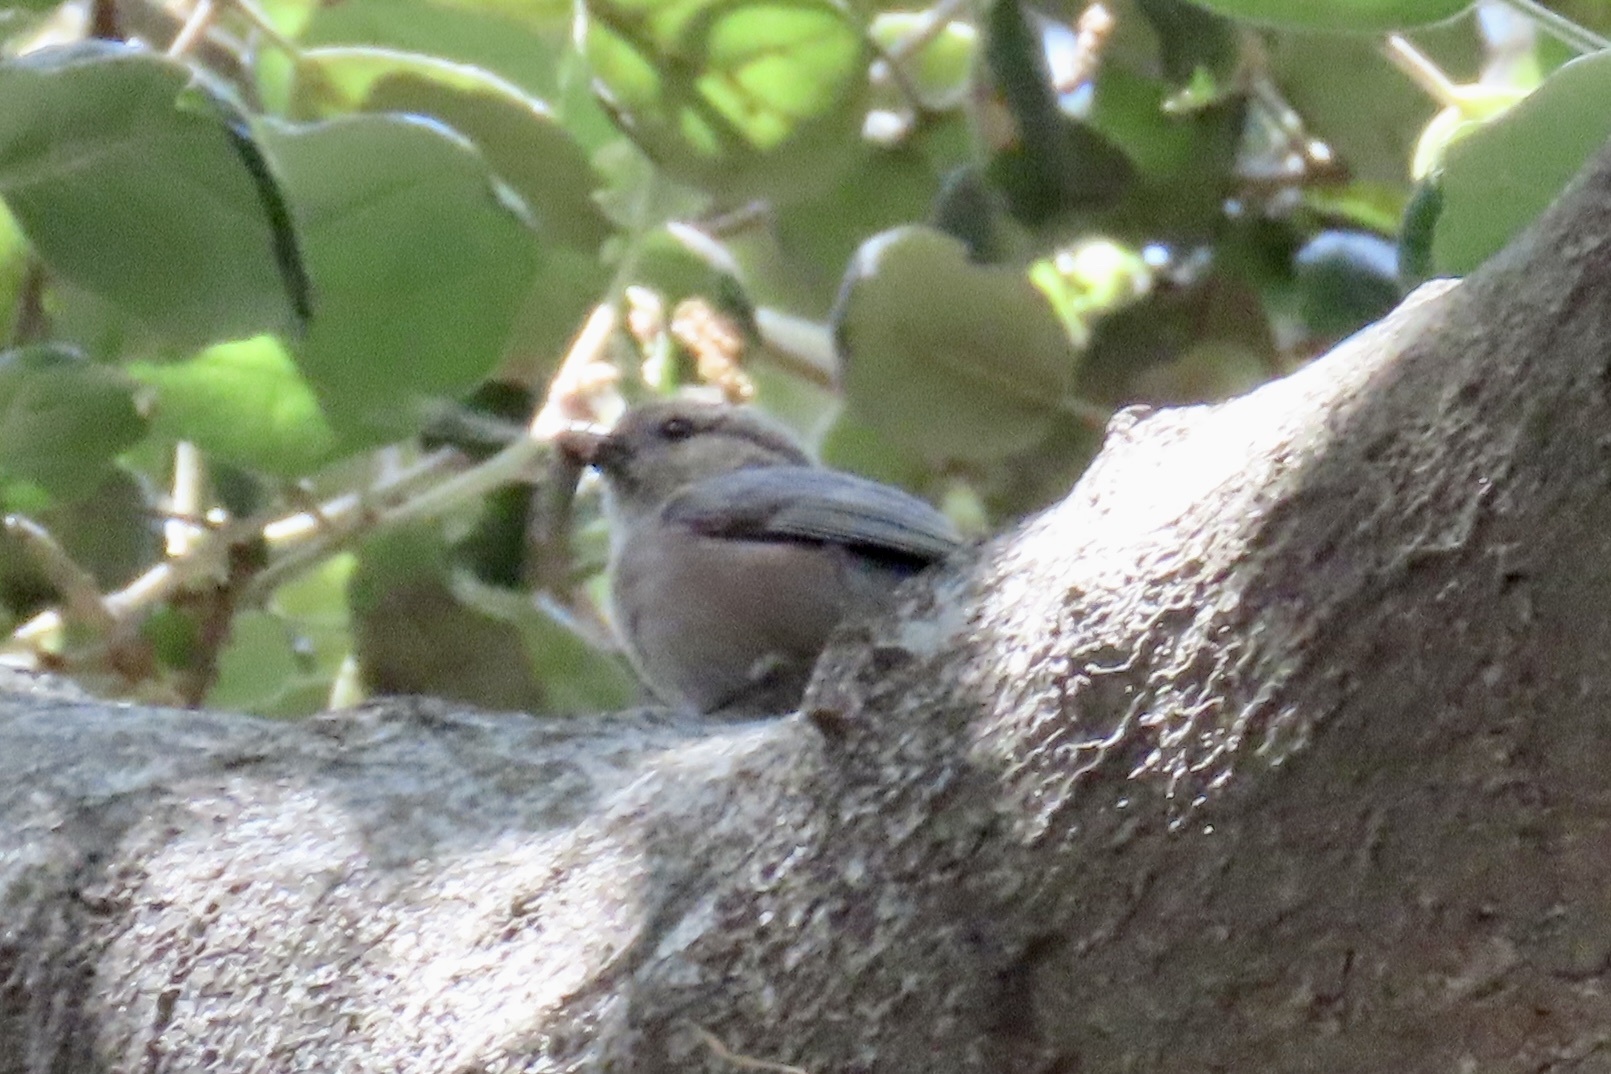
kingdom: Animalia
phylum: Chordata
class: Aves
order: Passeriformes
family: Aegithalidae
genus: Psaltriparus
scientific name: Psaltriparus minimus
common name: American bushtit
